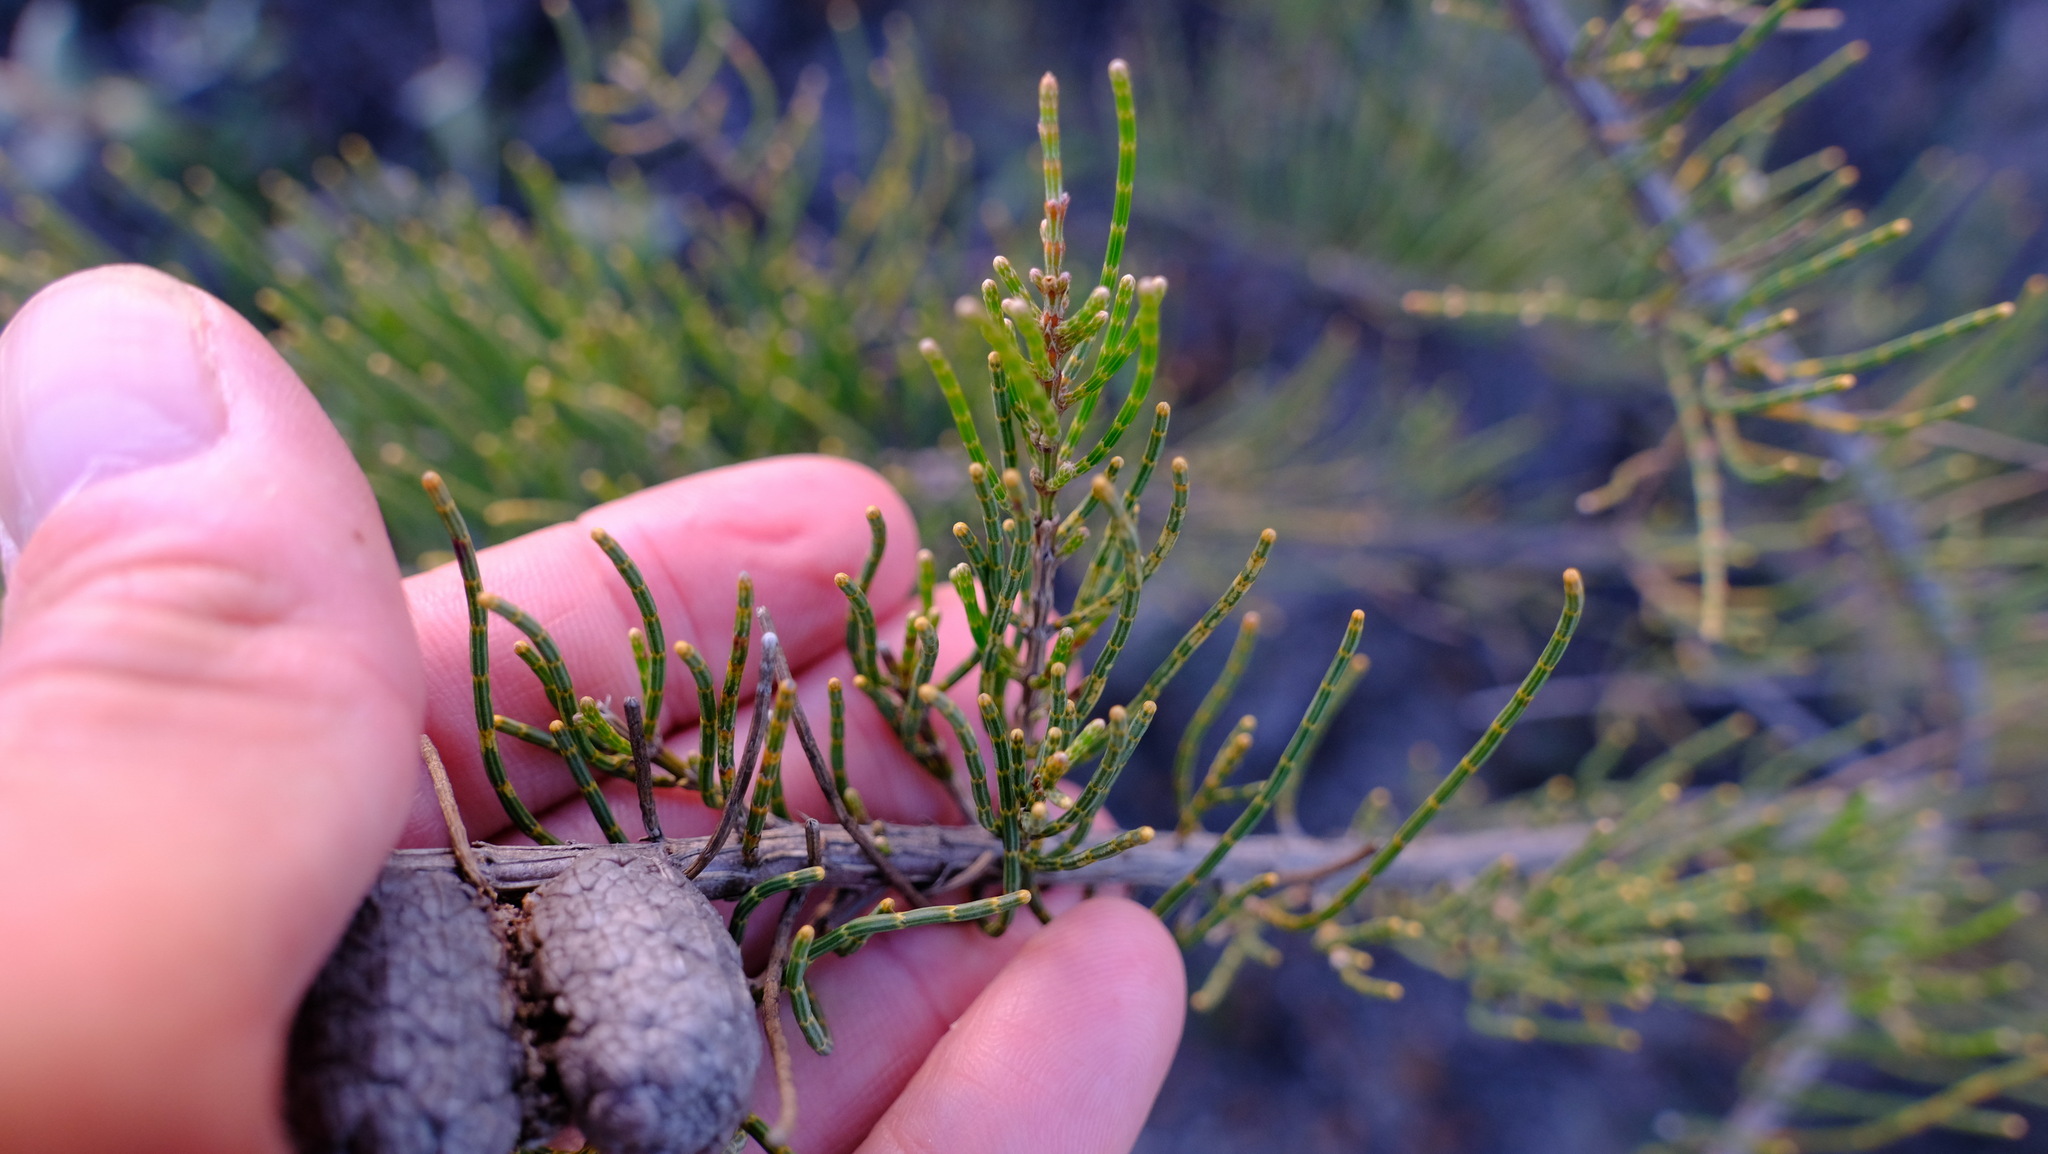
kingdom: Plantae
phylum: Tracheophyta
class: Magnoliopsida
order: Fagales
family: Casuarinaceae
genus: Allocasuarina
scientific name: Allocasuarina humilis
